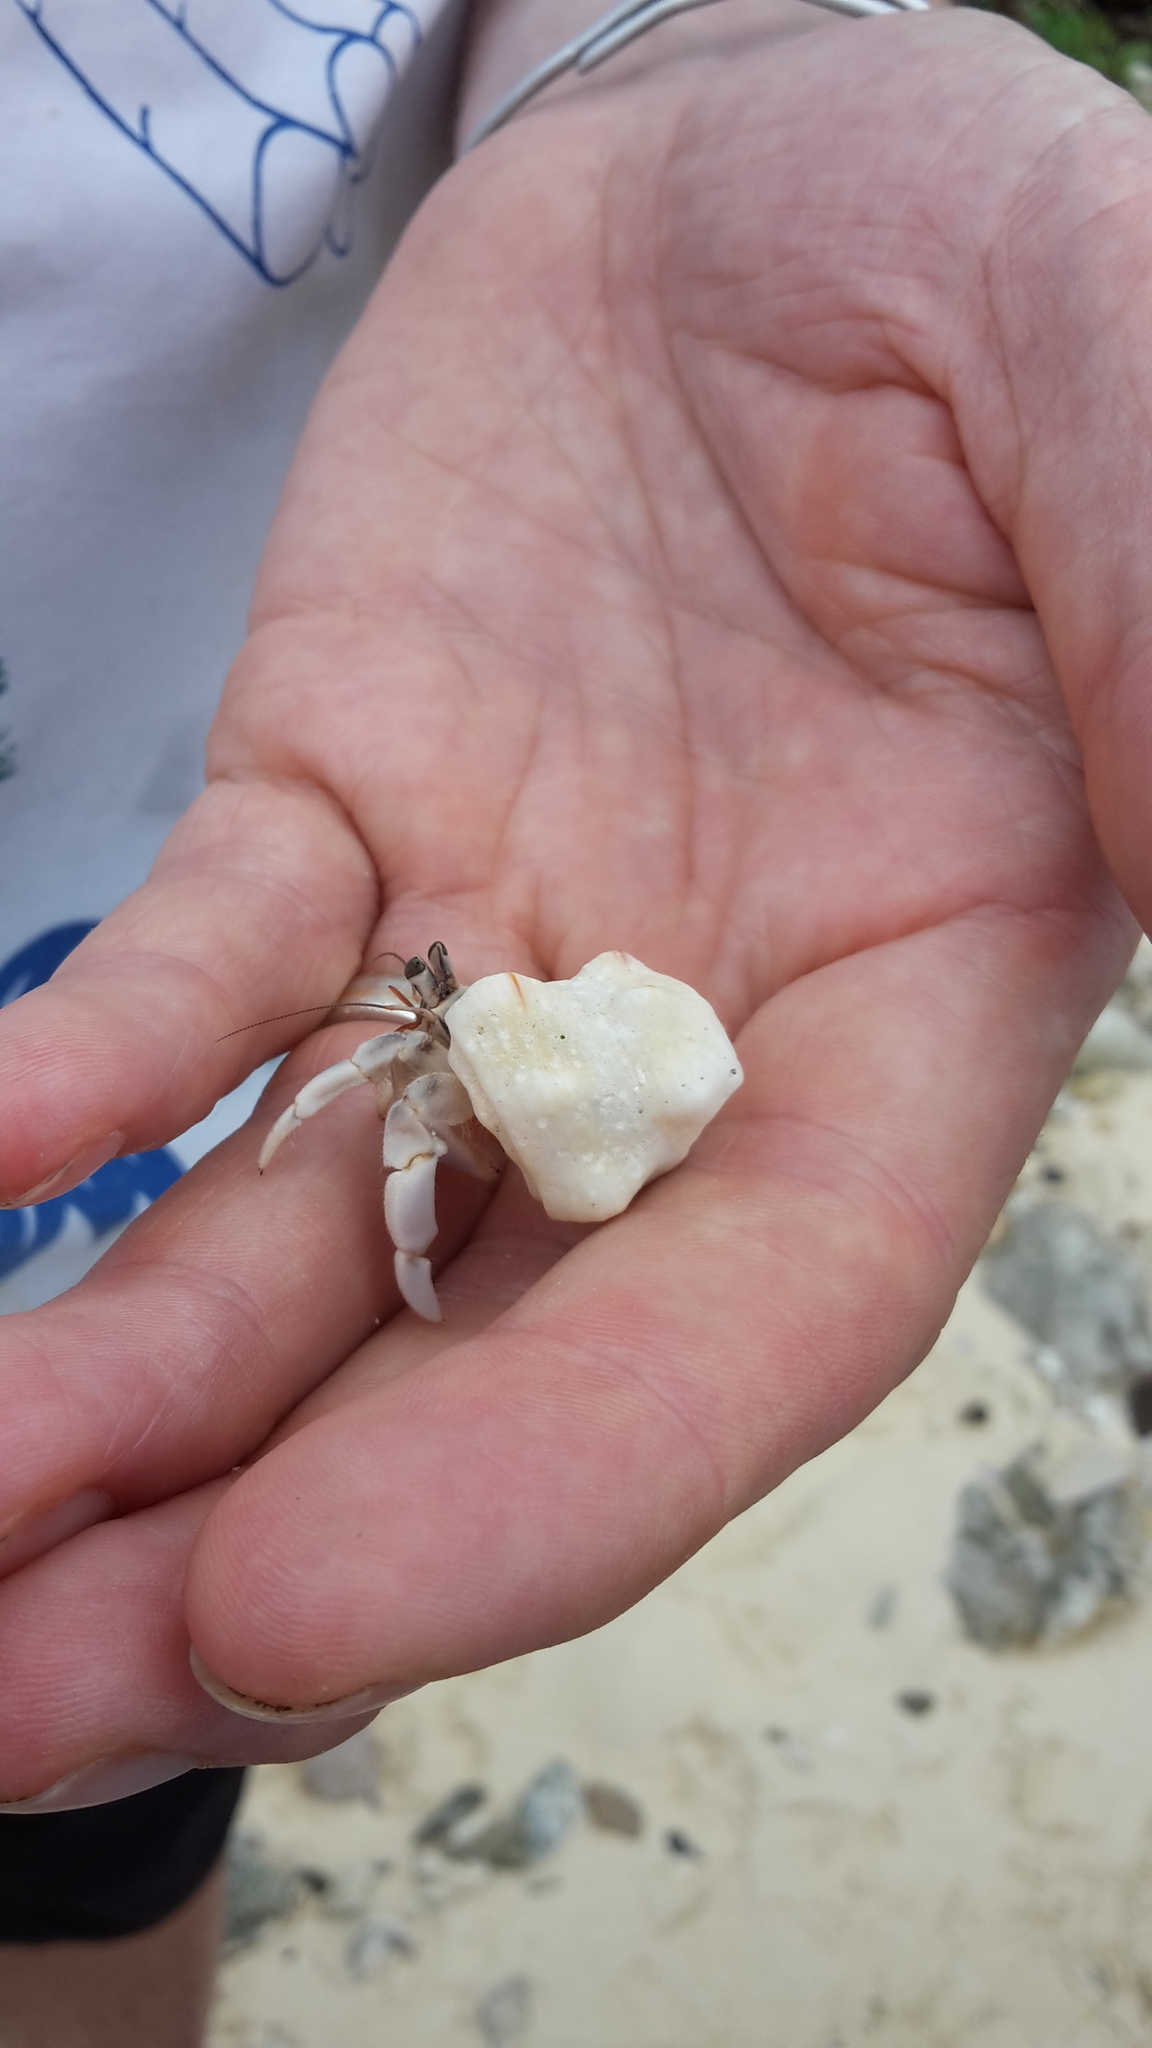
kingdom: Animalia
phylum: Arthropoda
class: Malacostraca
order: Decapoda
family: Coenobitidae
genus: Coenobita
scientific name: Coenobita rugosus
